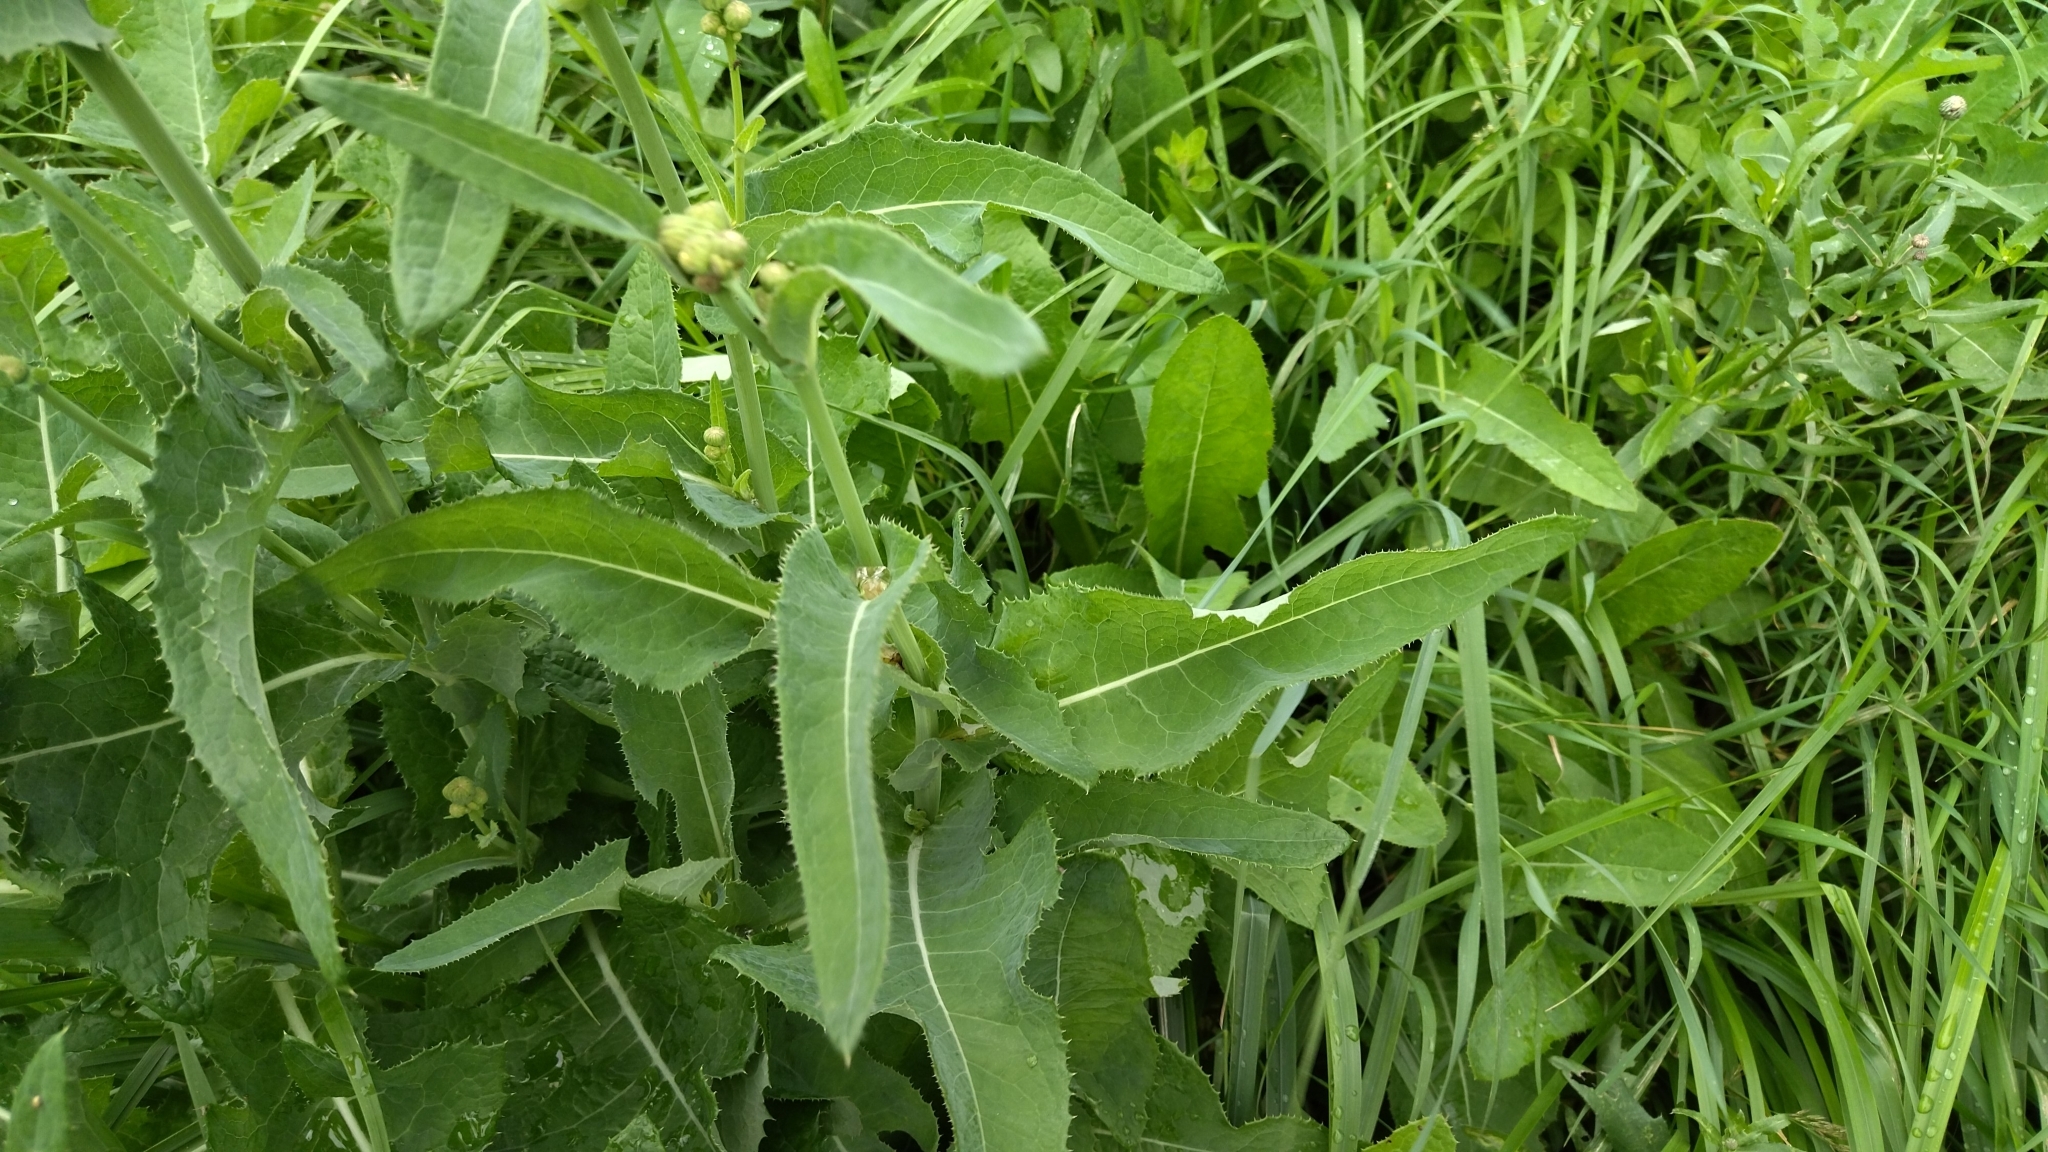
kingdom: Plantae
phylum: Tracheophyta
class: Magnoliopsida
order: Asterales
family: Asteraceae
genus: Sonchus
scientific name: Sonchus arvensis
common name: Perennial sow-thistle
